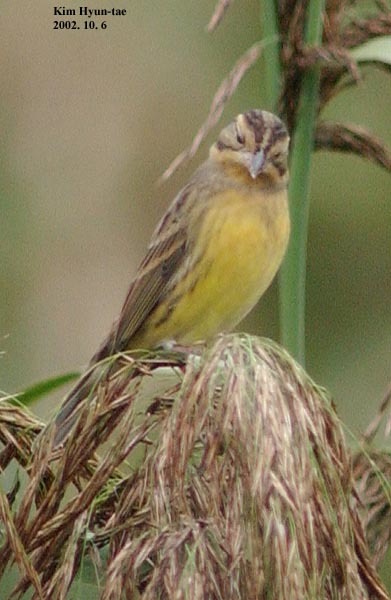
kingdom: Animalia
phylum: Chordata
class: Aves
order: Passeriformes
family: Emberizidae
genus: Emberiza
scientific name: Emberiza aureola
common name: Yellow-breasted bunting
